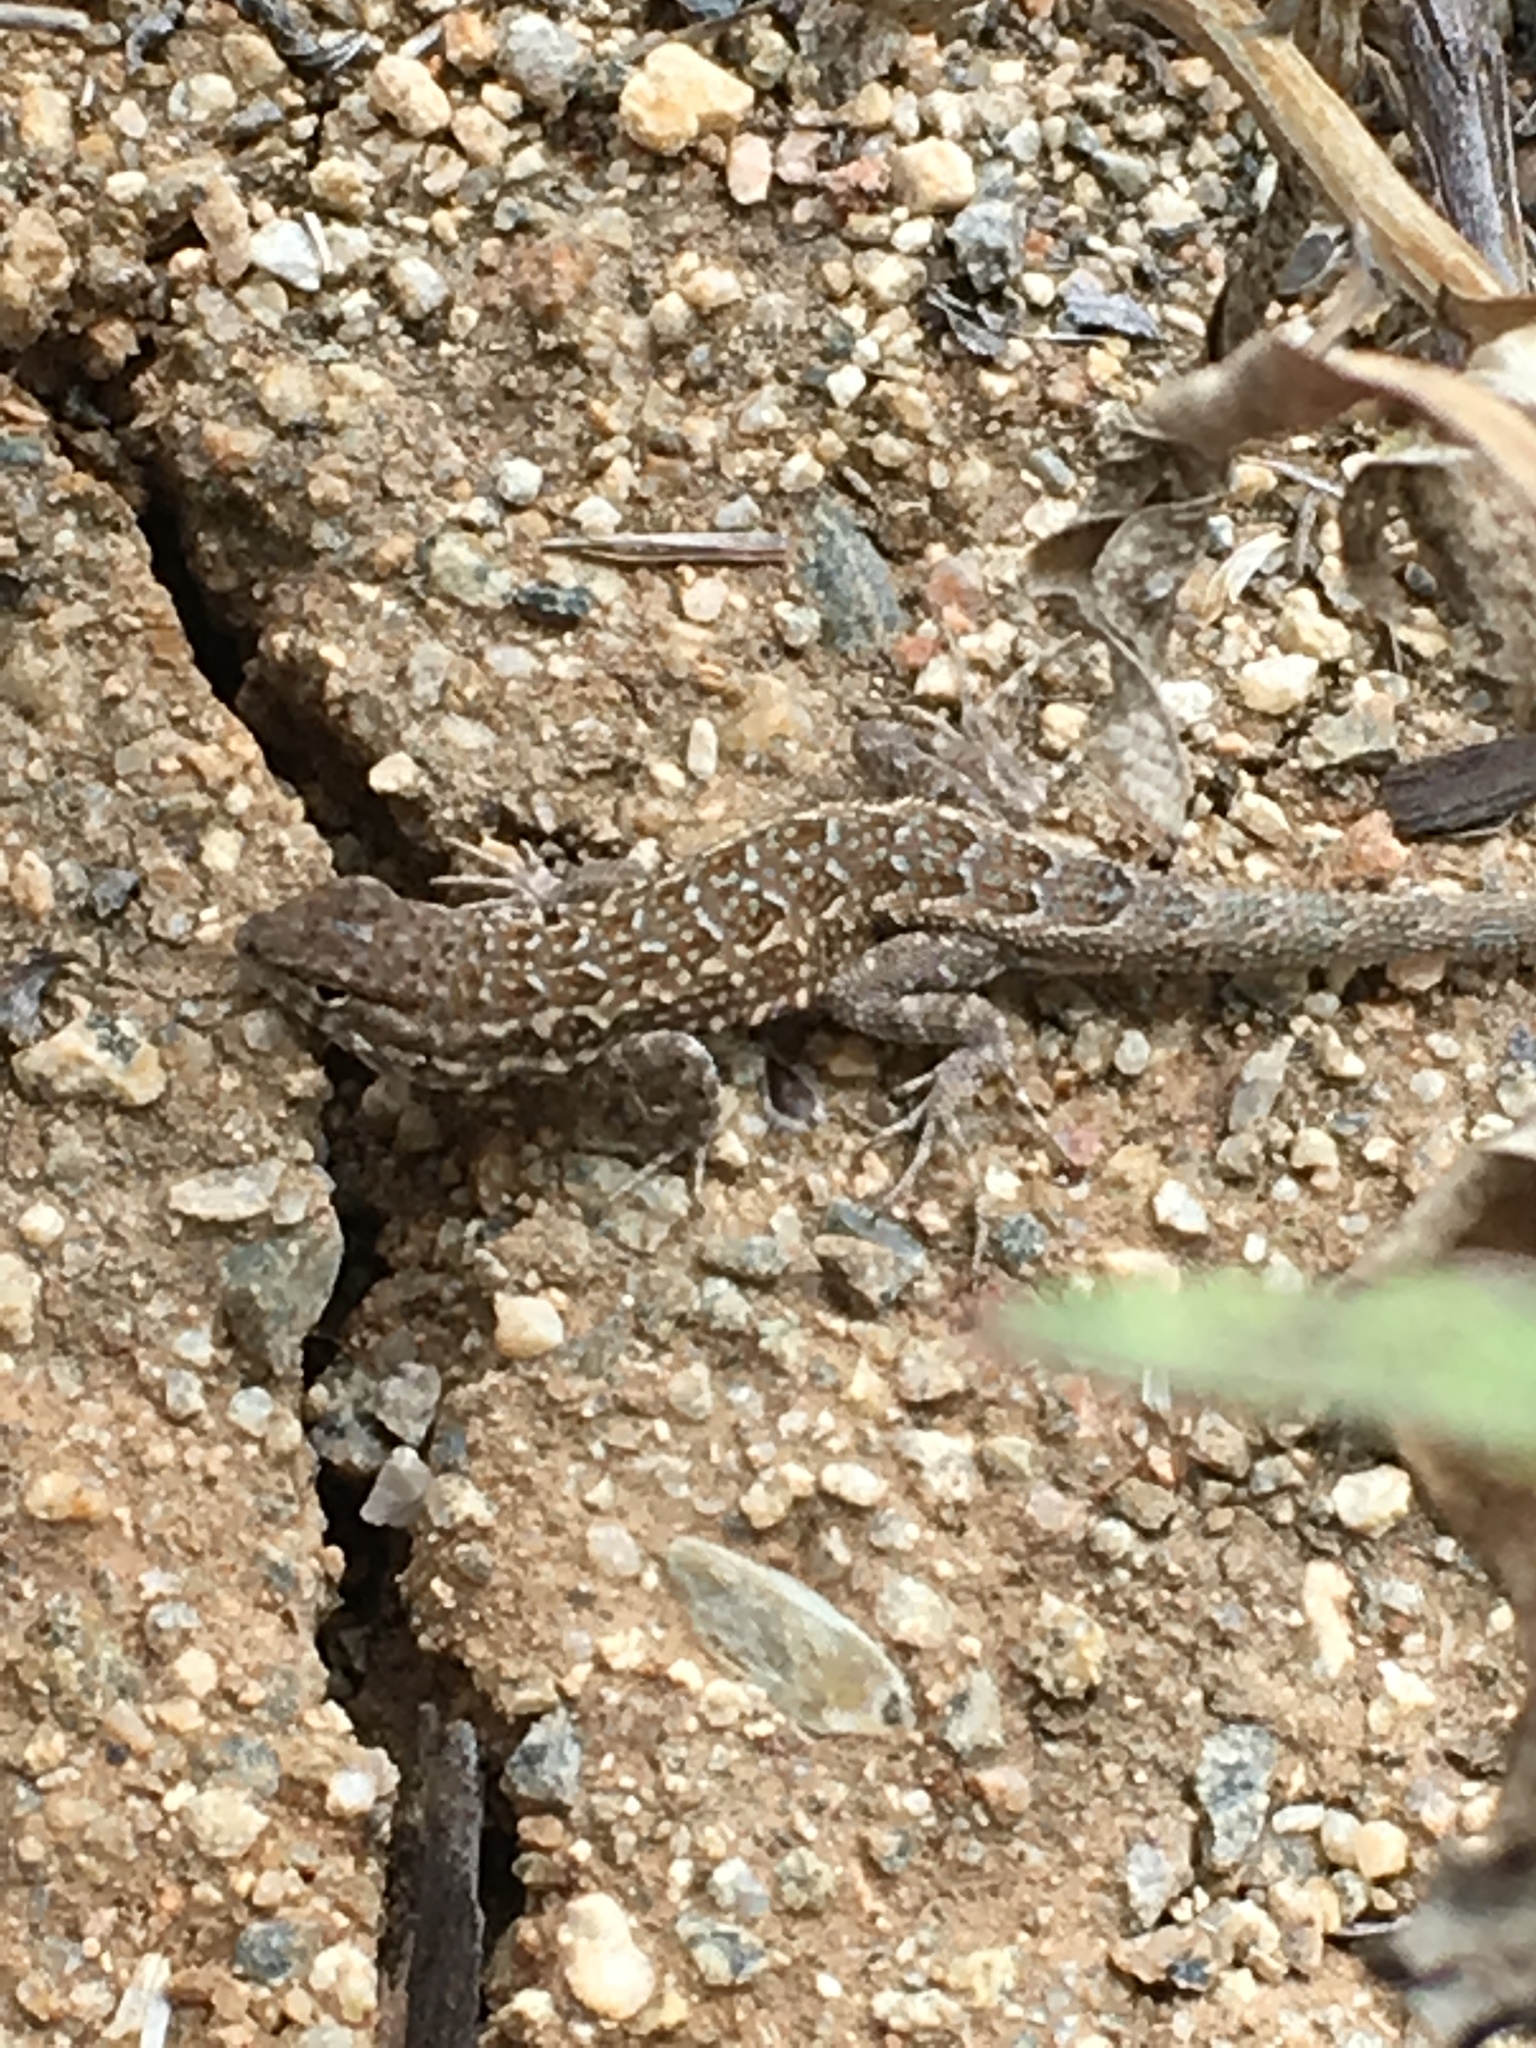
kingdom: Animalia
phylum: Chordata
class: Squamata
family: Phrynosomatidae
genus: Uta
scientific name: Uta stansburiana
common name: Side-blotched lizard
